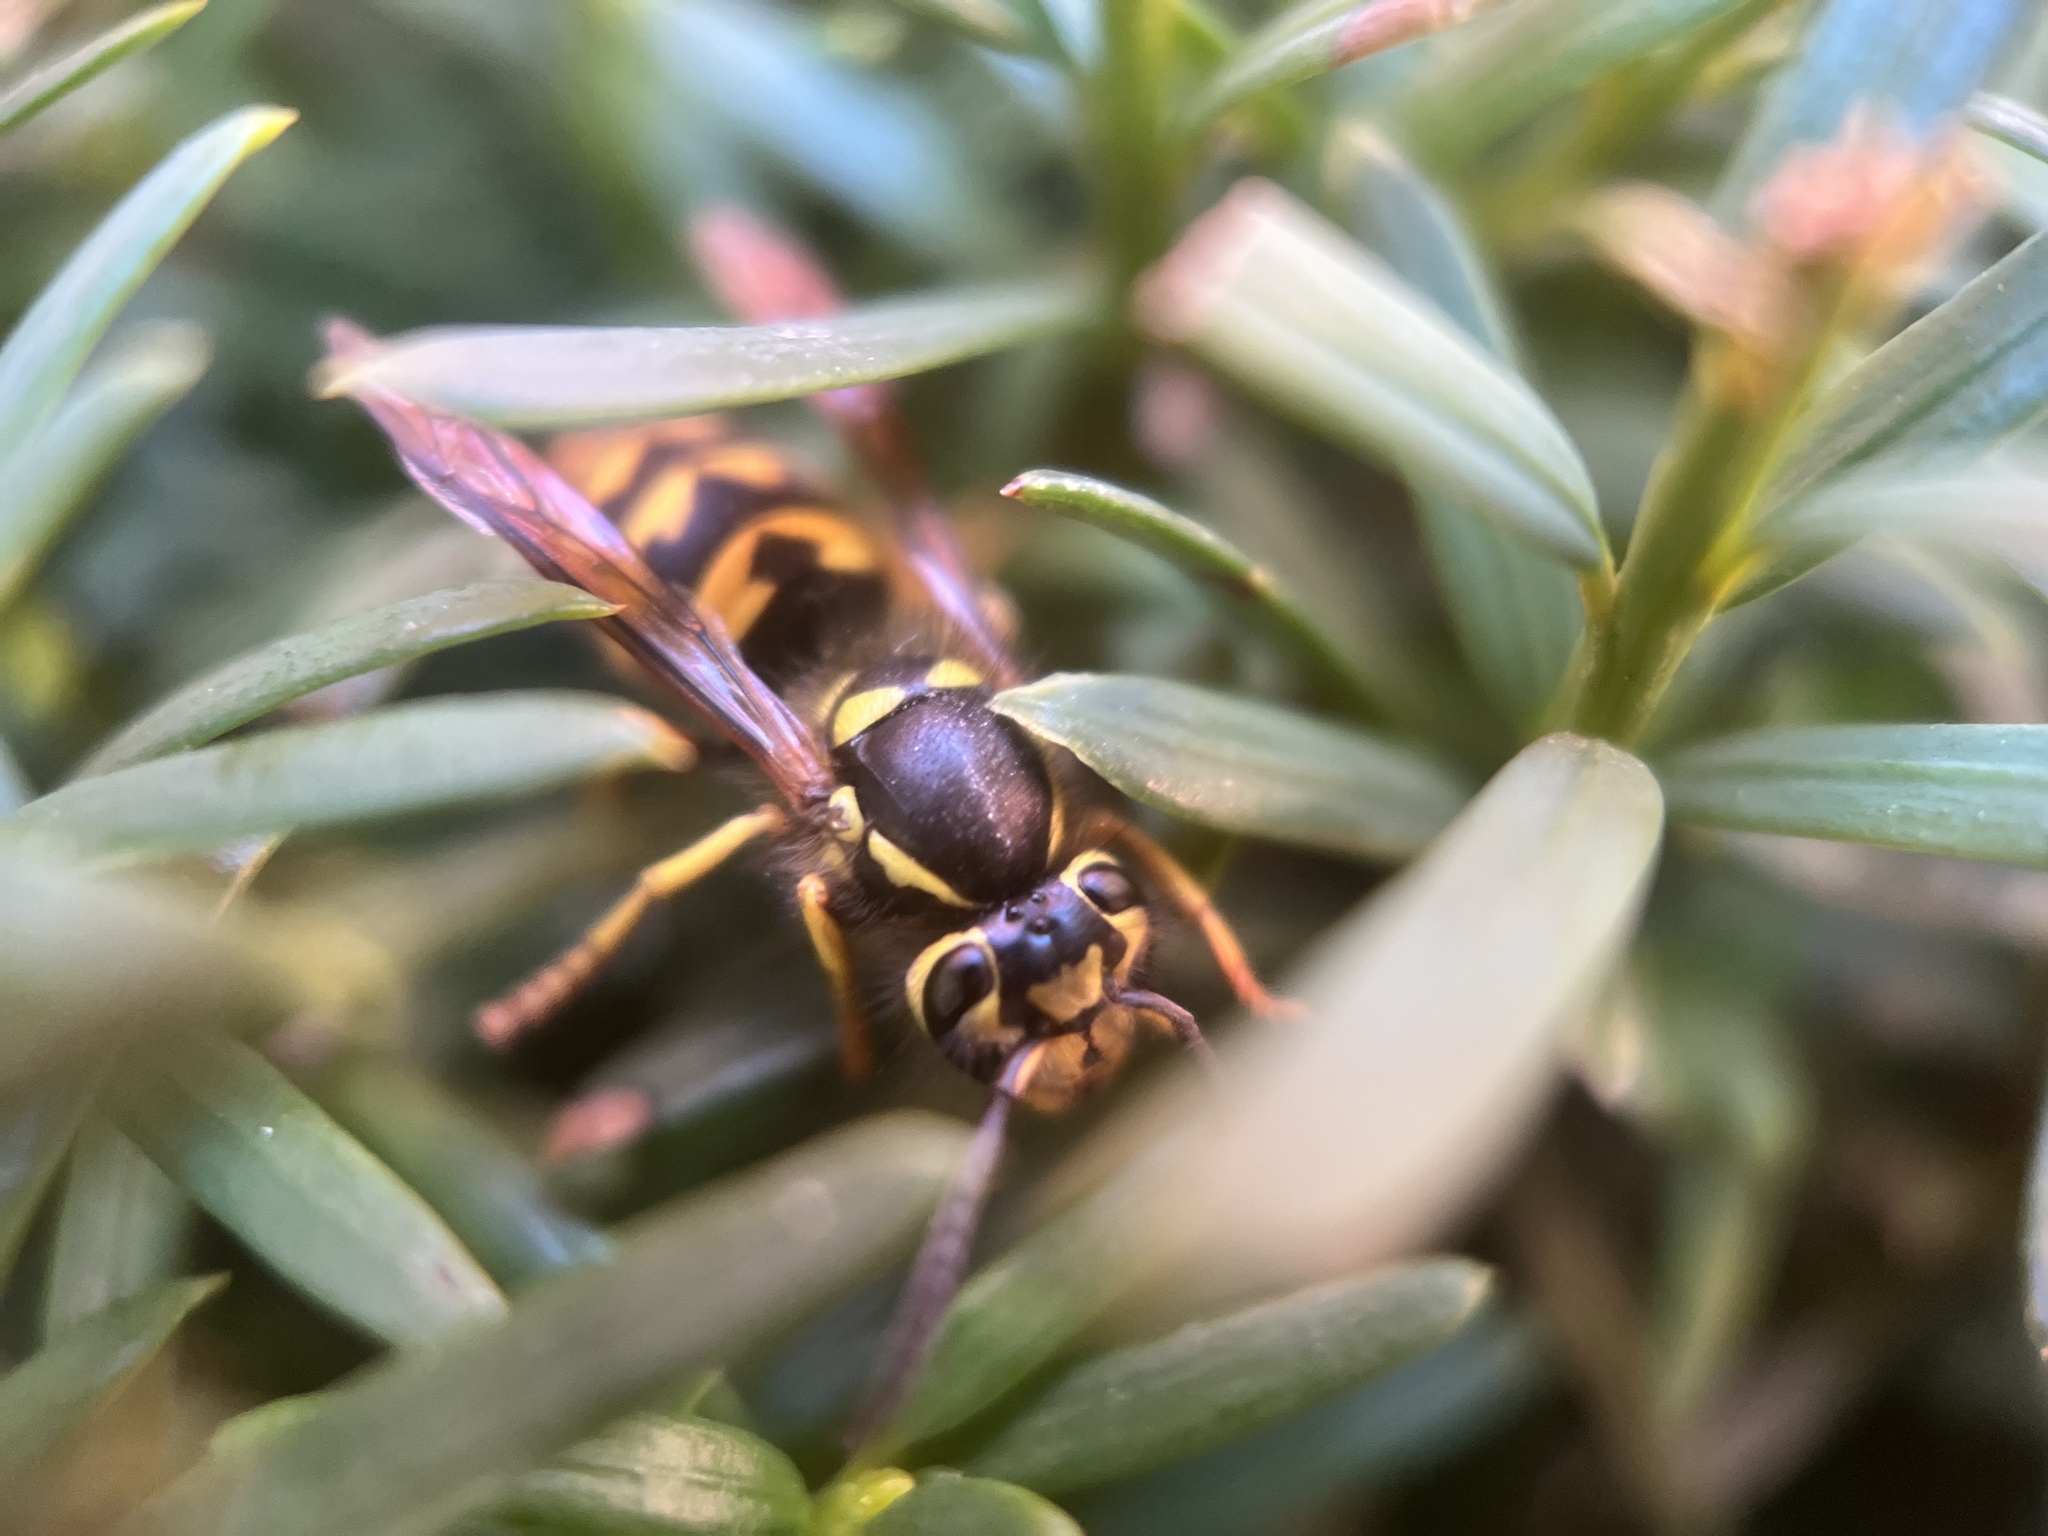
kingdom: Animalia
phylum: Arthropoda
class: Insecta
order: Hymenoptera
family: Vespidae
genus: Vespula
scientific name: Vespula pensylvanica
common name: Western yellowjacket
